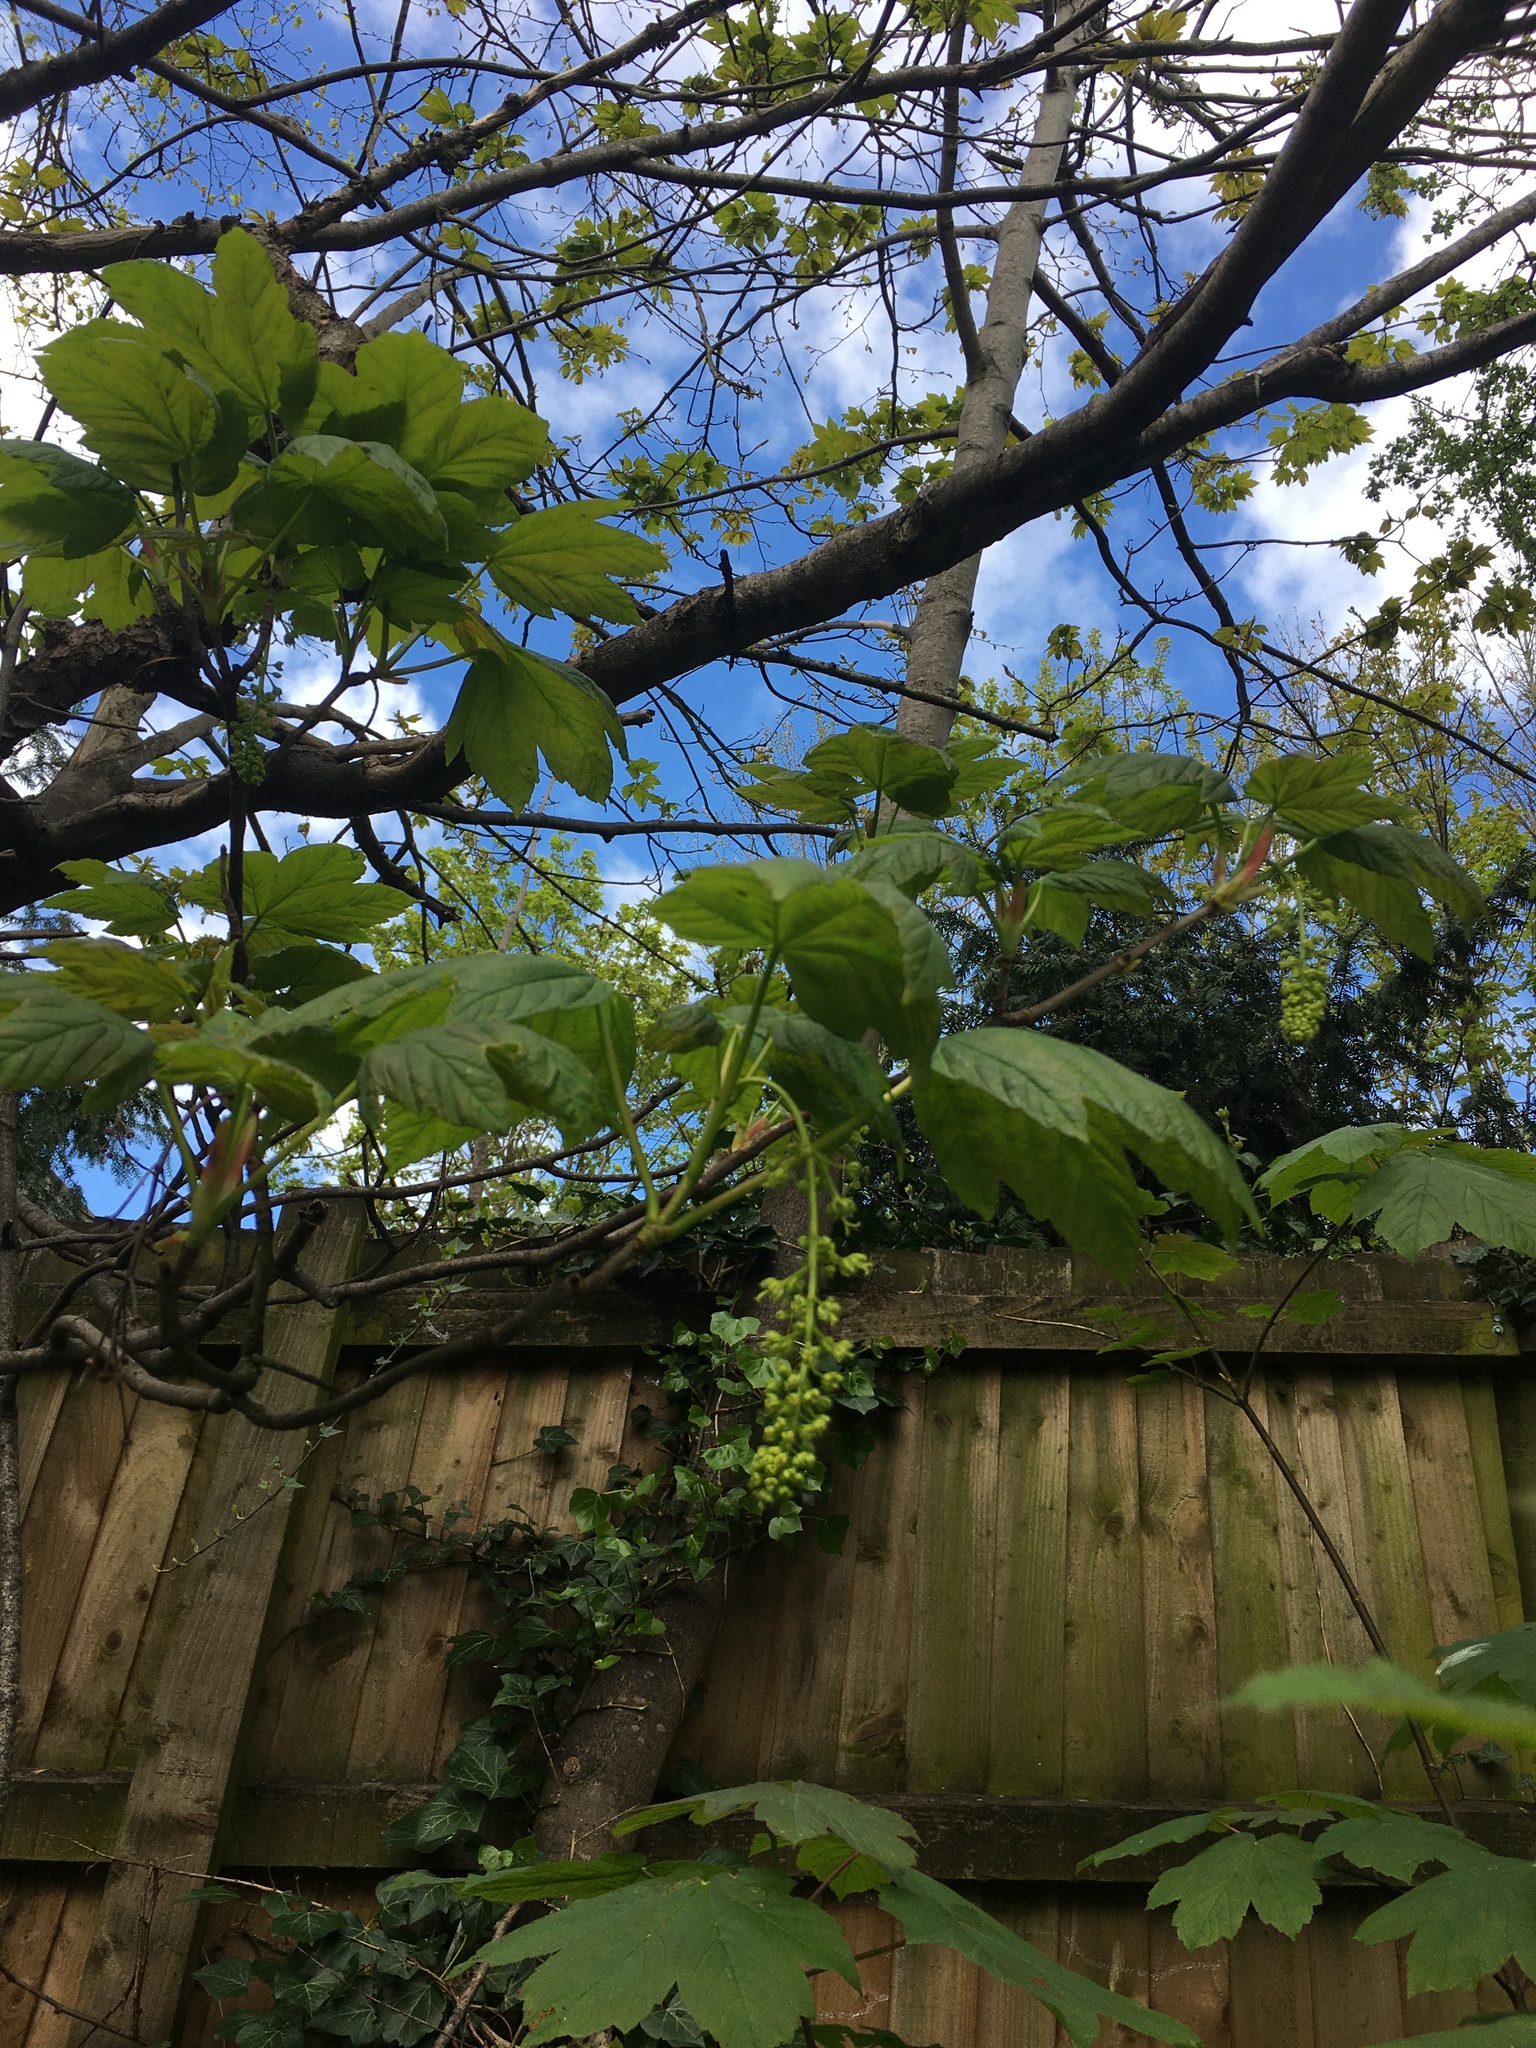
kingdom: Plantae
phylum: Tracheophyta
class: Magnoliopsida
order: Sapindales
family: Sapindaceae
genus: Acer
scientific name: Acer pseudoplatanus
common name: Sycamore
